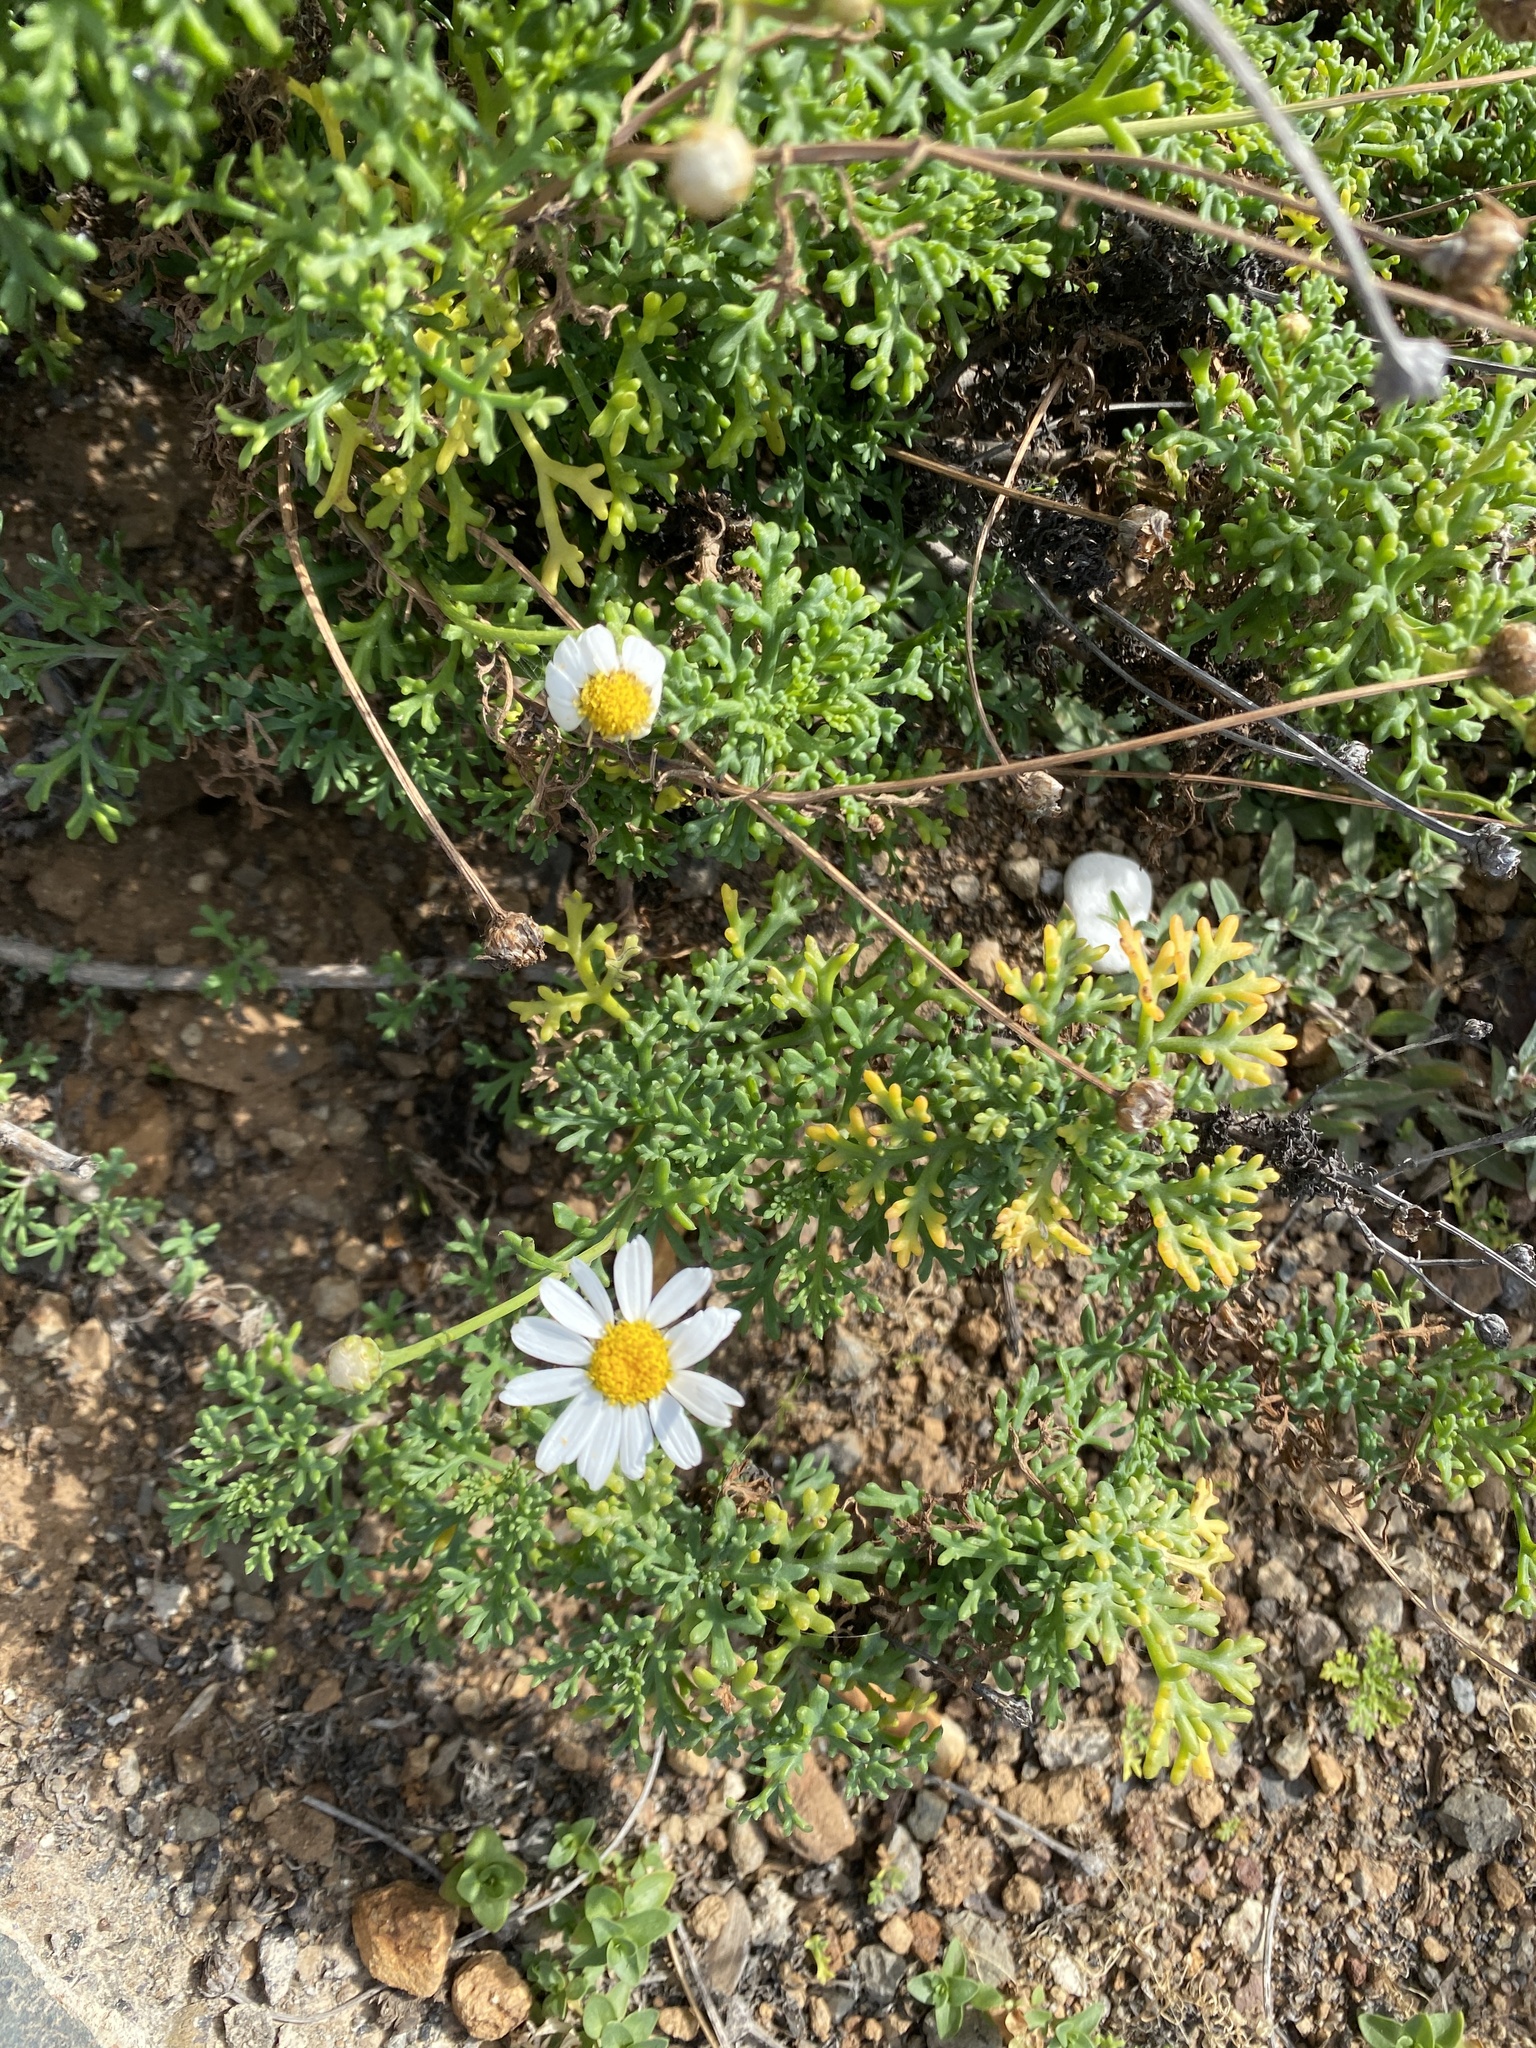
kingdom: Plantae
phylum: Tracheophyta
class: Magnoliopsida
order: Asterales
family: Asteraceae
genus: Argyranthemum
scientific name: Argyranthemum frutescens
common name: Paris daisy
